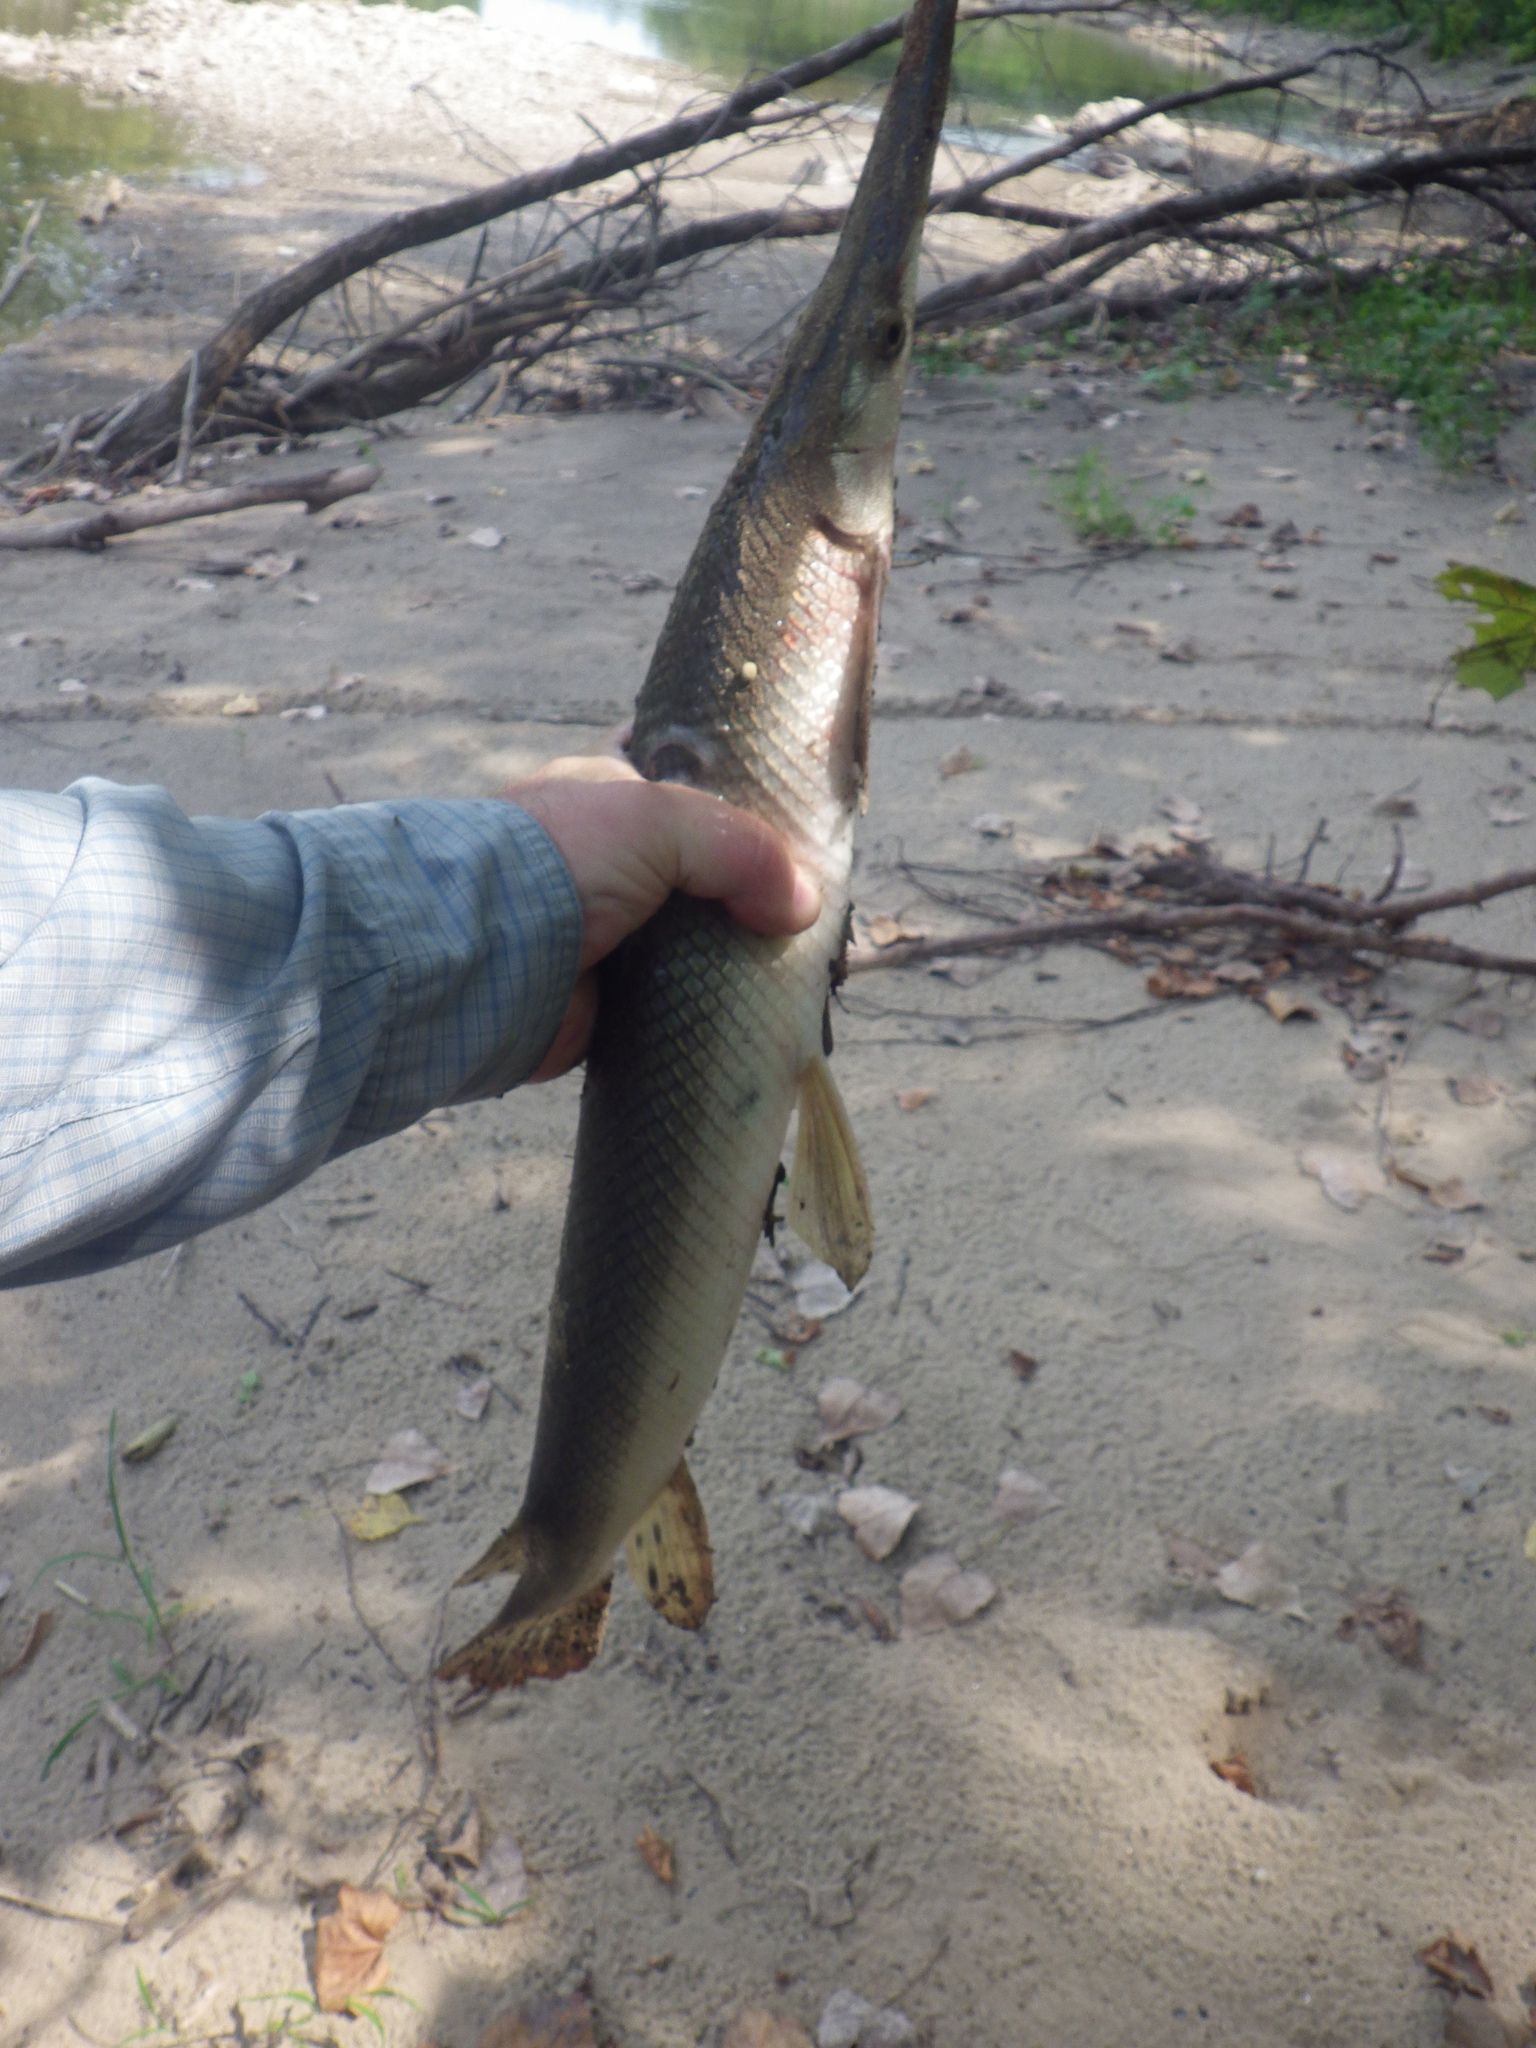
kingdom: Animalia
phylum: Chordata
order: Lepisosteiformes
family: Lepisosteidae
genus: Lepisosteus
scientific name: Lepisosteus platostomus
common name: Shortnose gar
